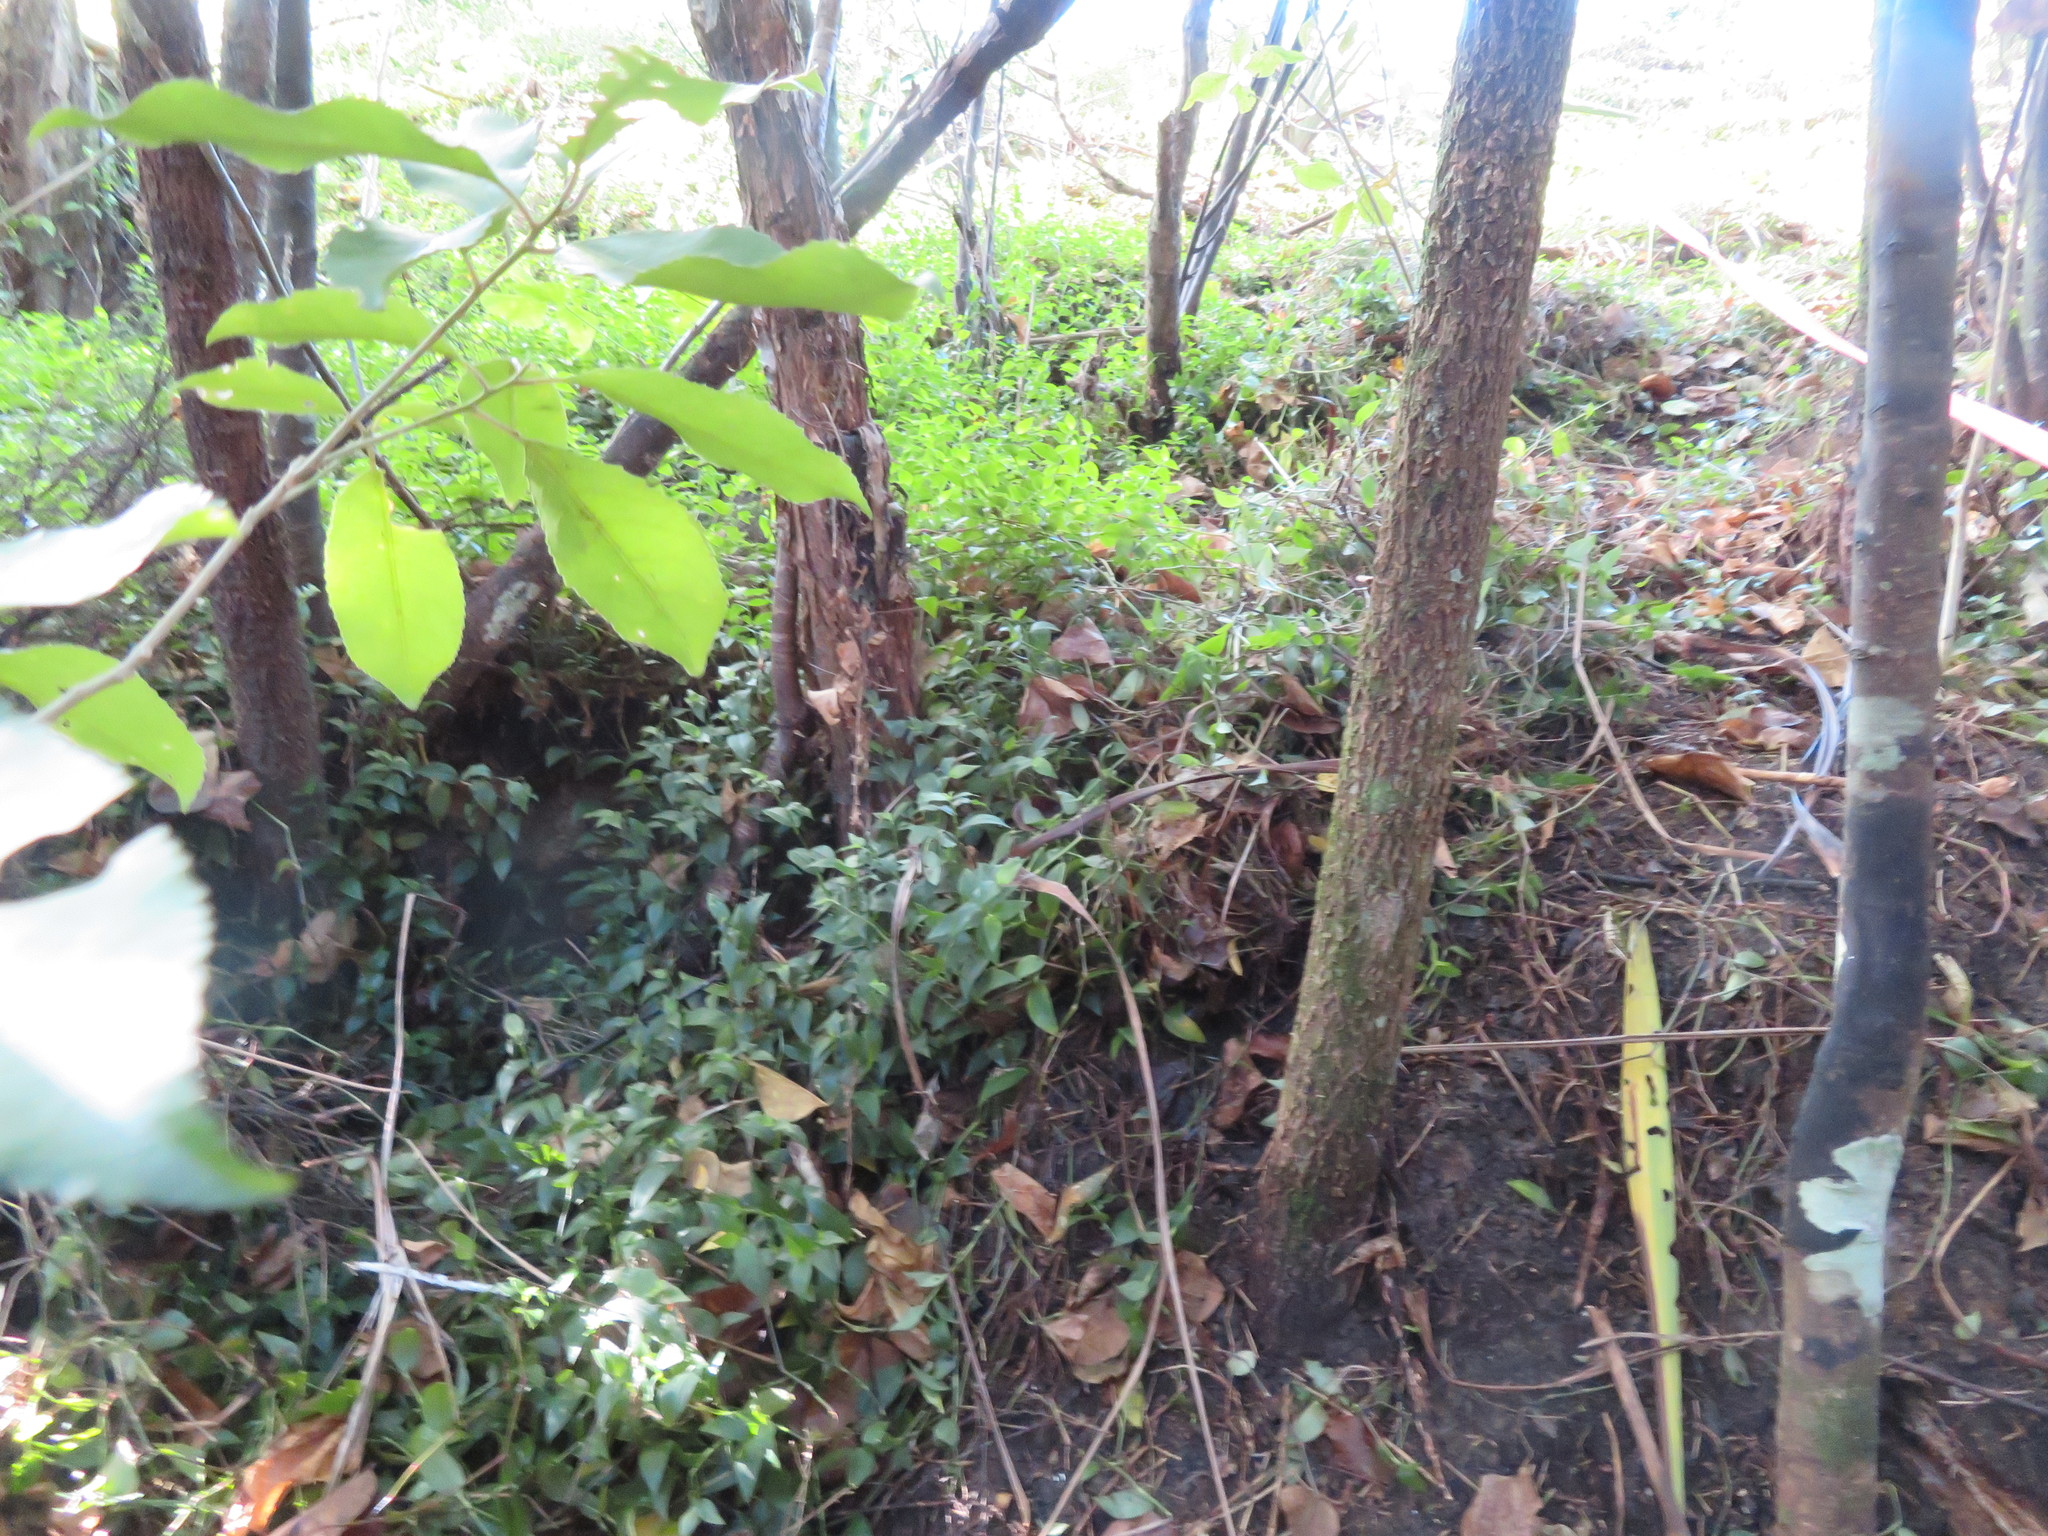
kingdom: Plantae
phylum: Tracheophyta
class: Liliopsida
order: Commelinales
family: Commelinaceae
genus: Tradescantia
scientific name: Tradescantia fluminensis
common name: Wandering-jew
